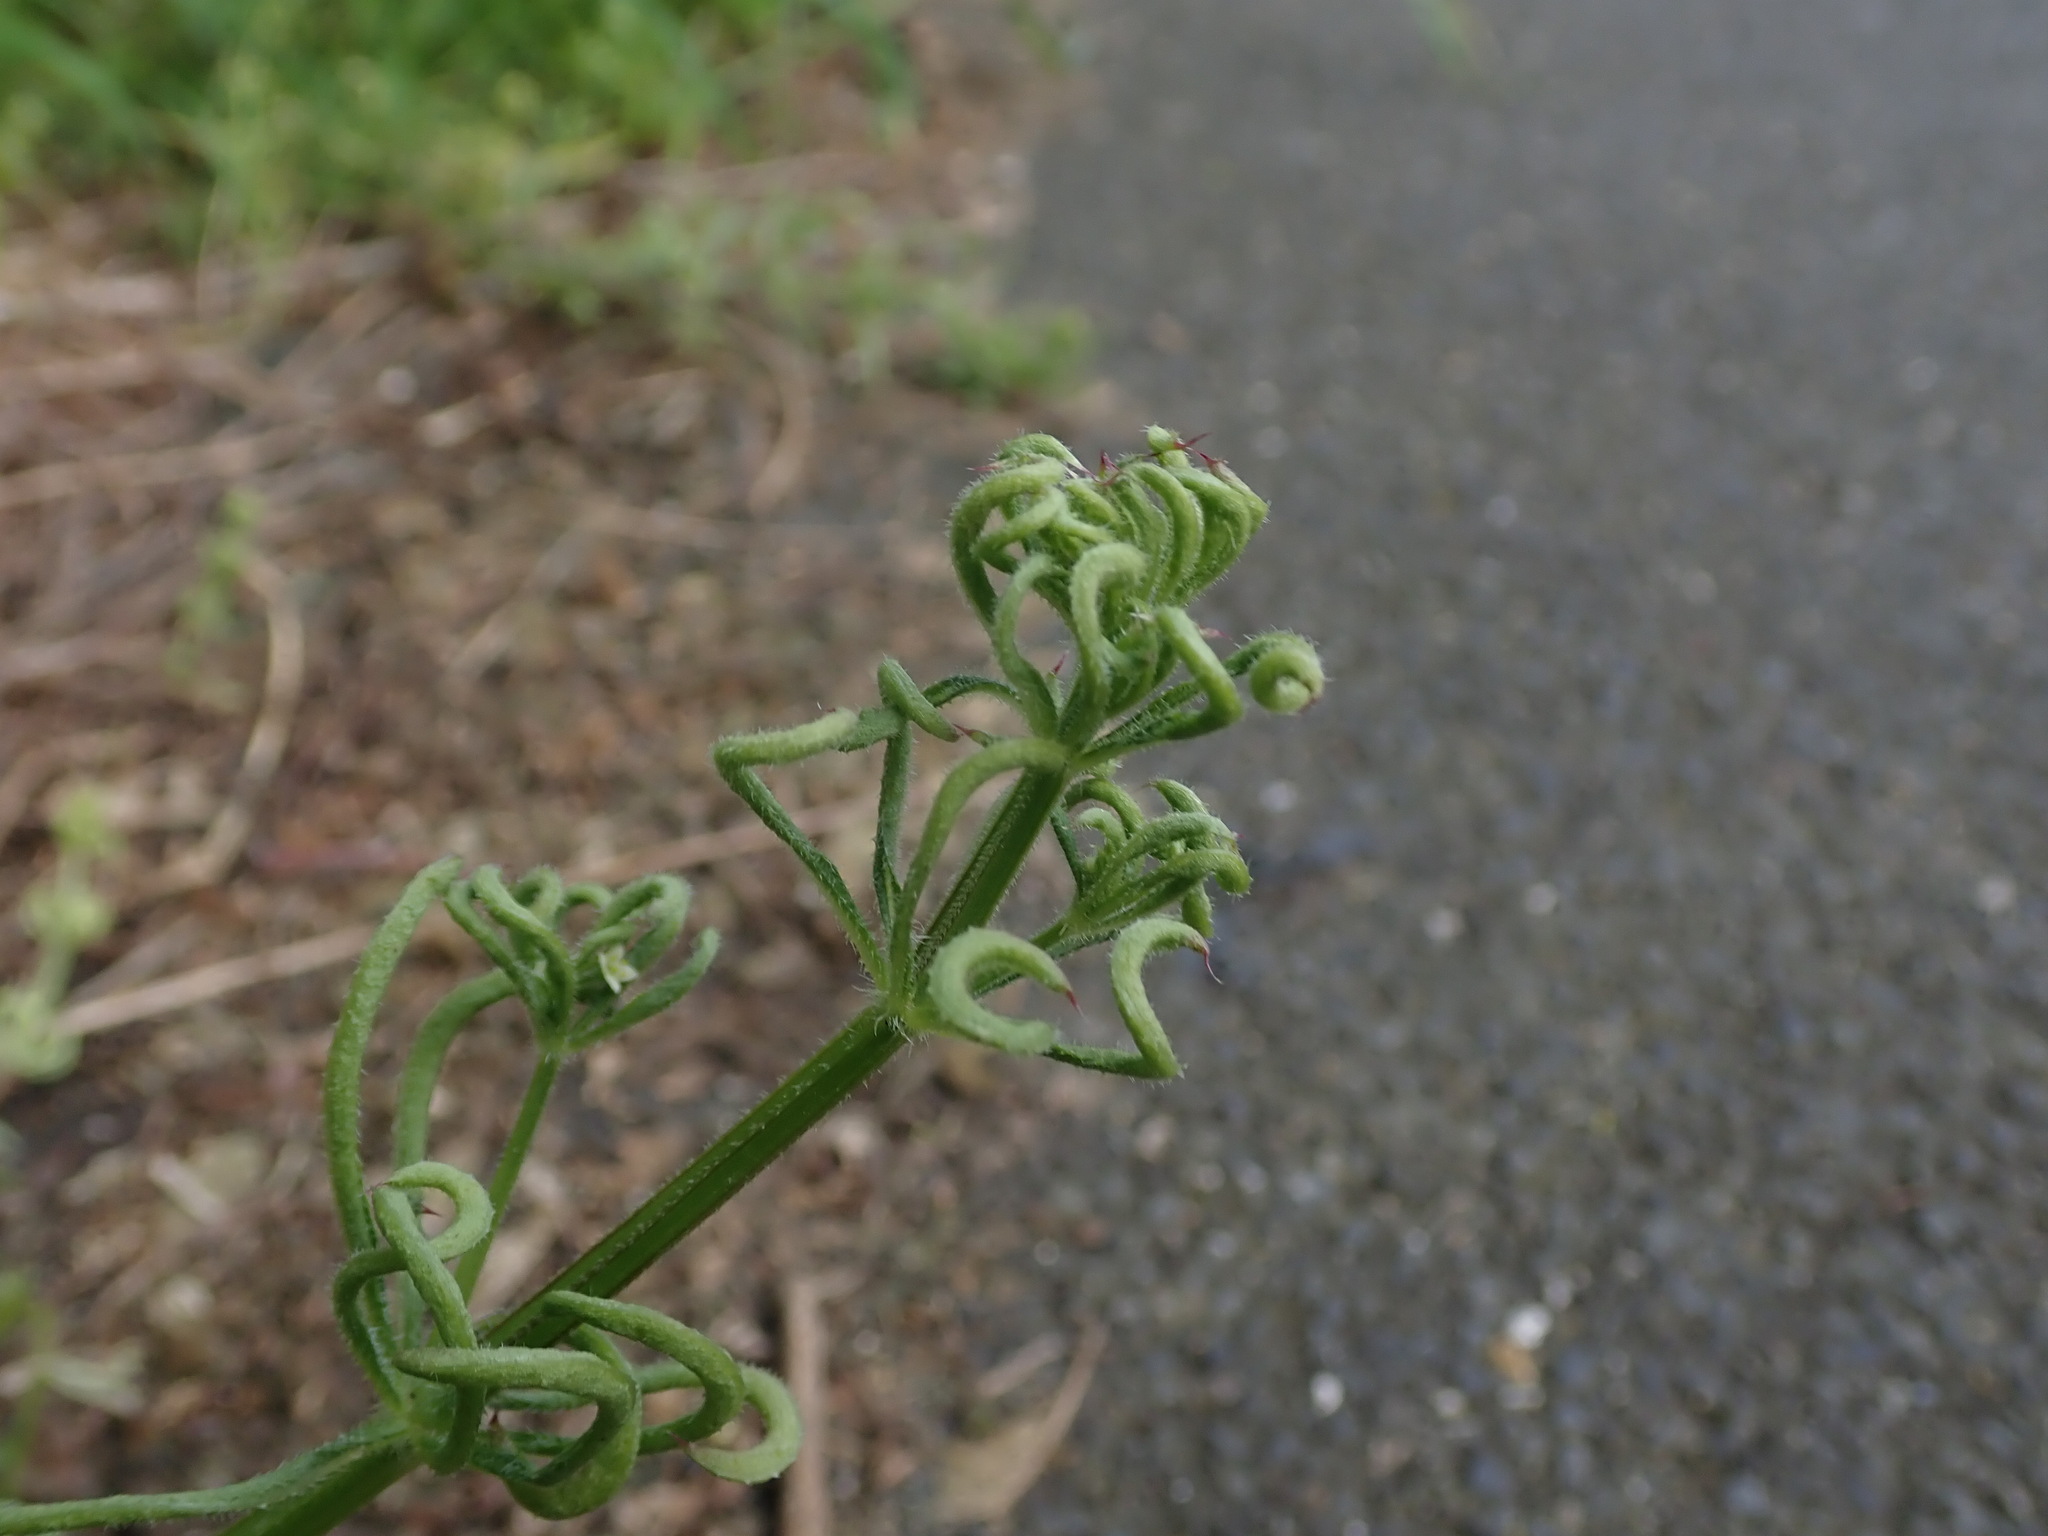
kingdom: Animalia
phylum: Arthropoda
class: Arachnida
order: Trombidiformes
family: Eriophyidae
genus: Cecidophyes
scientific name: Cecidophyes rouhollahi
